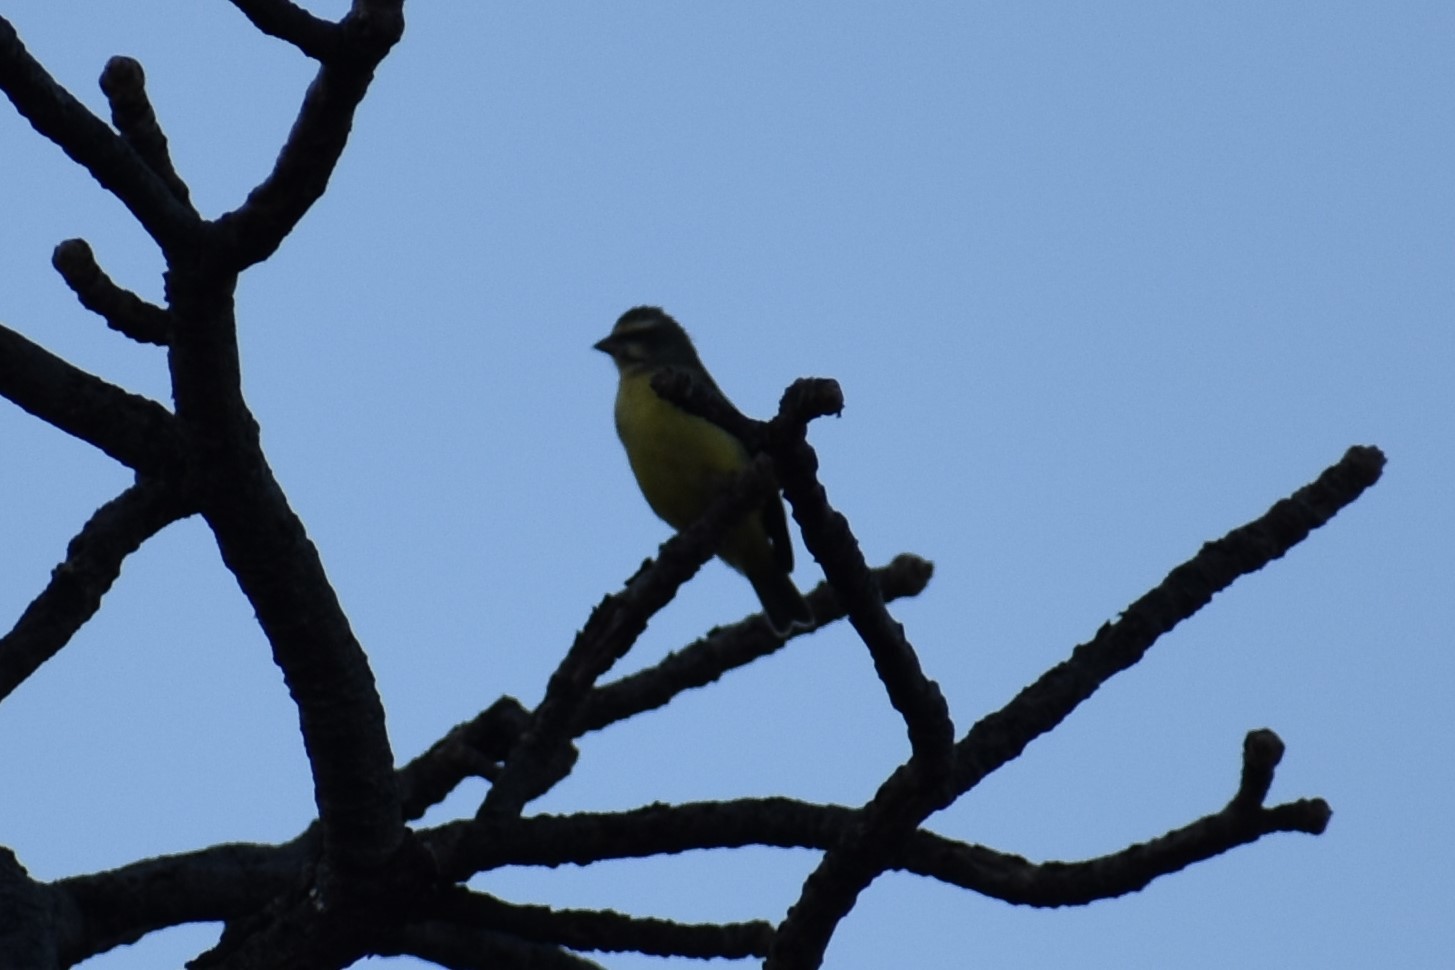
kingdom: Animalia
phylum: Chordata
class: Aves
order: Passeriformes
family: Fringillidae
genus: Crithagra
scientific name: Crithagra mozambica
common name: Yellow-fronted canary
